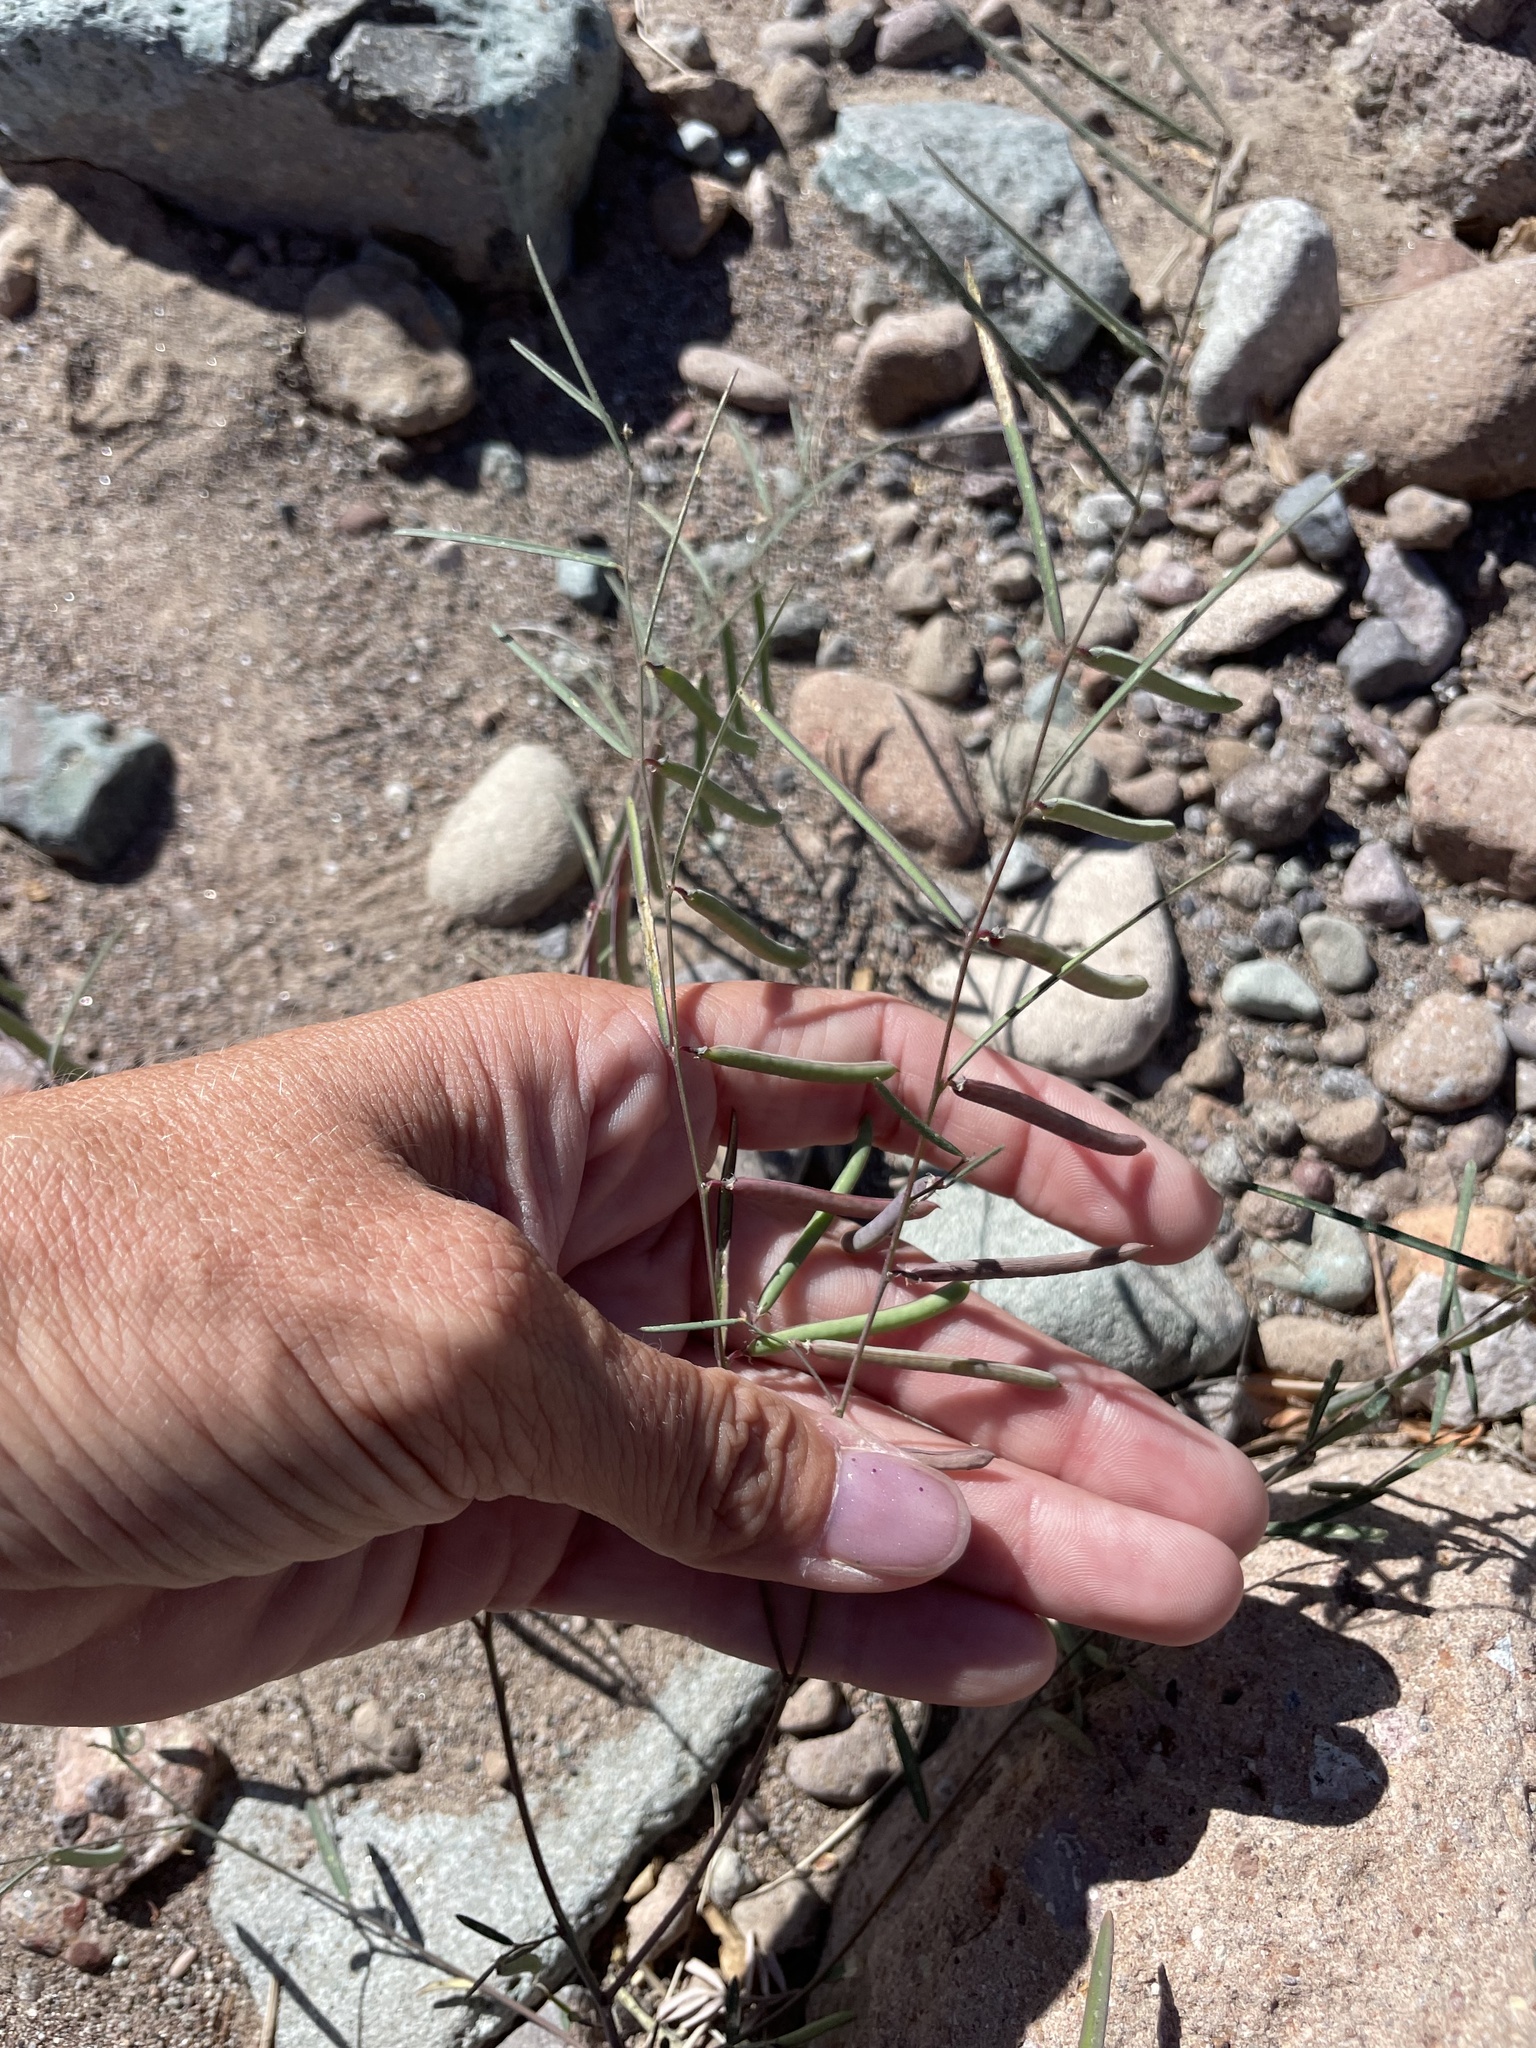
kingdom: Plantae
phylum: Tracheophyta
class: Magnoliopsida
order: Fabales
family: Fabaceae
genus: Sphinctospermum
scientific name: Sphinctospermum constrictum
